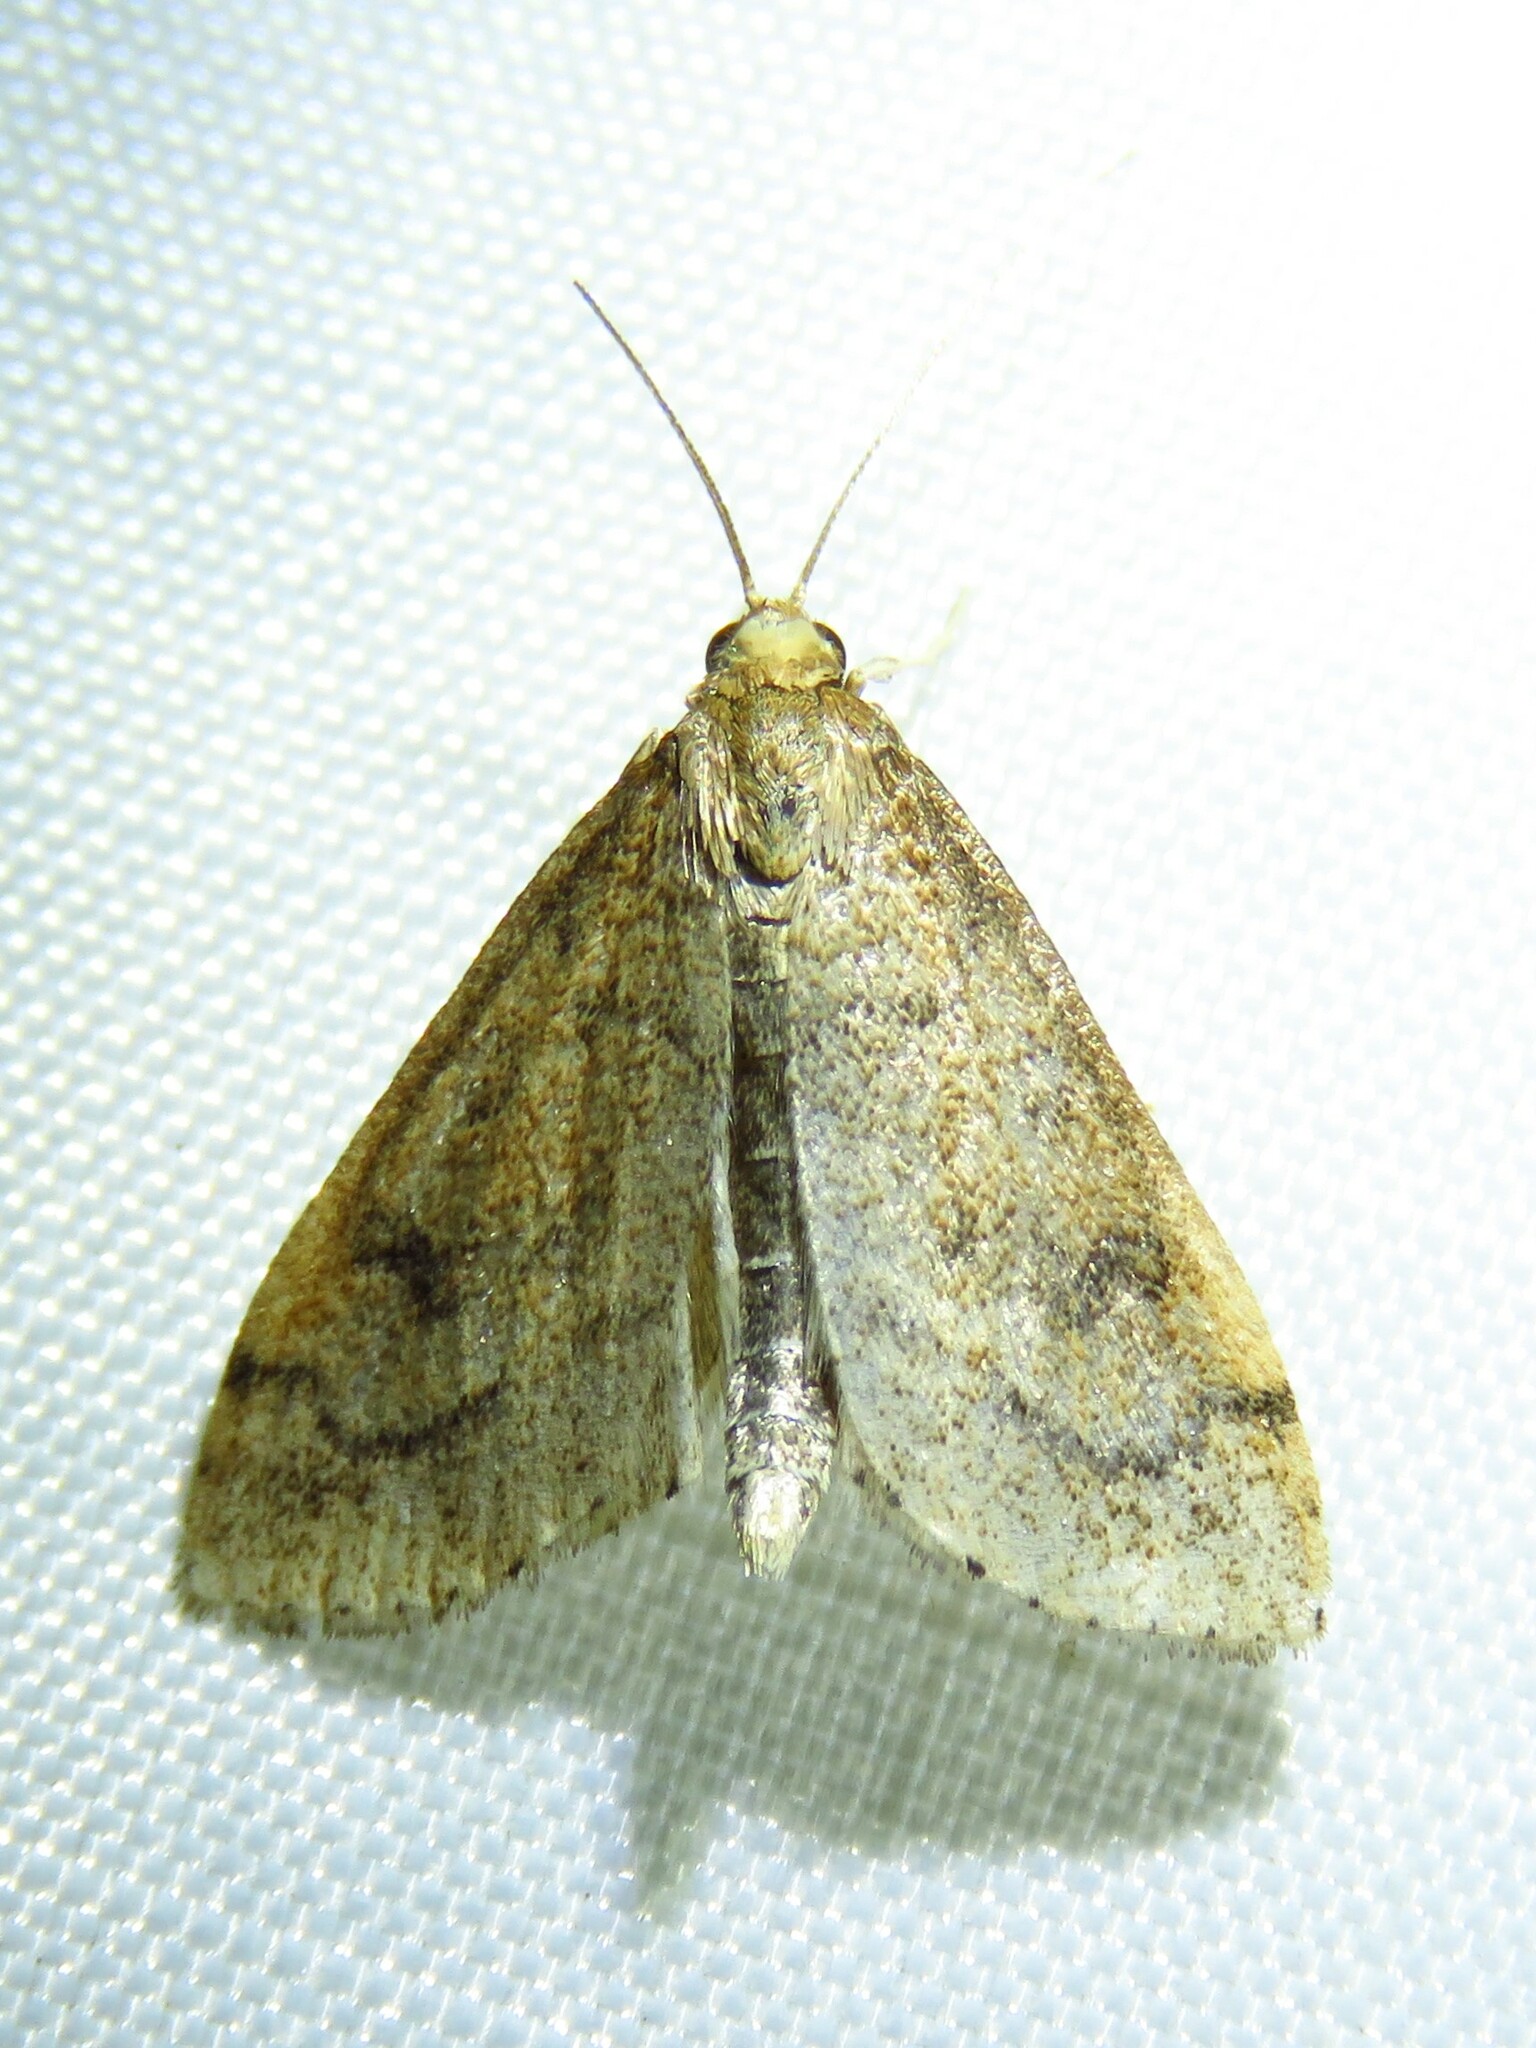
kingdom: Animalia
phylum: Arthropoda
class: Insecta
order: Lepidoptera
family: Crambidae
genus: Udea
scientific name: Udea rubigalis
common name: Celery leaftier moth
